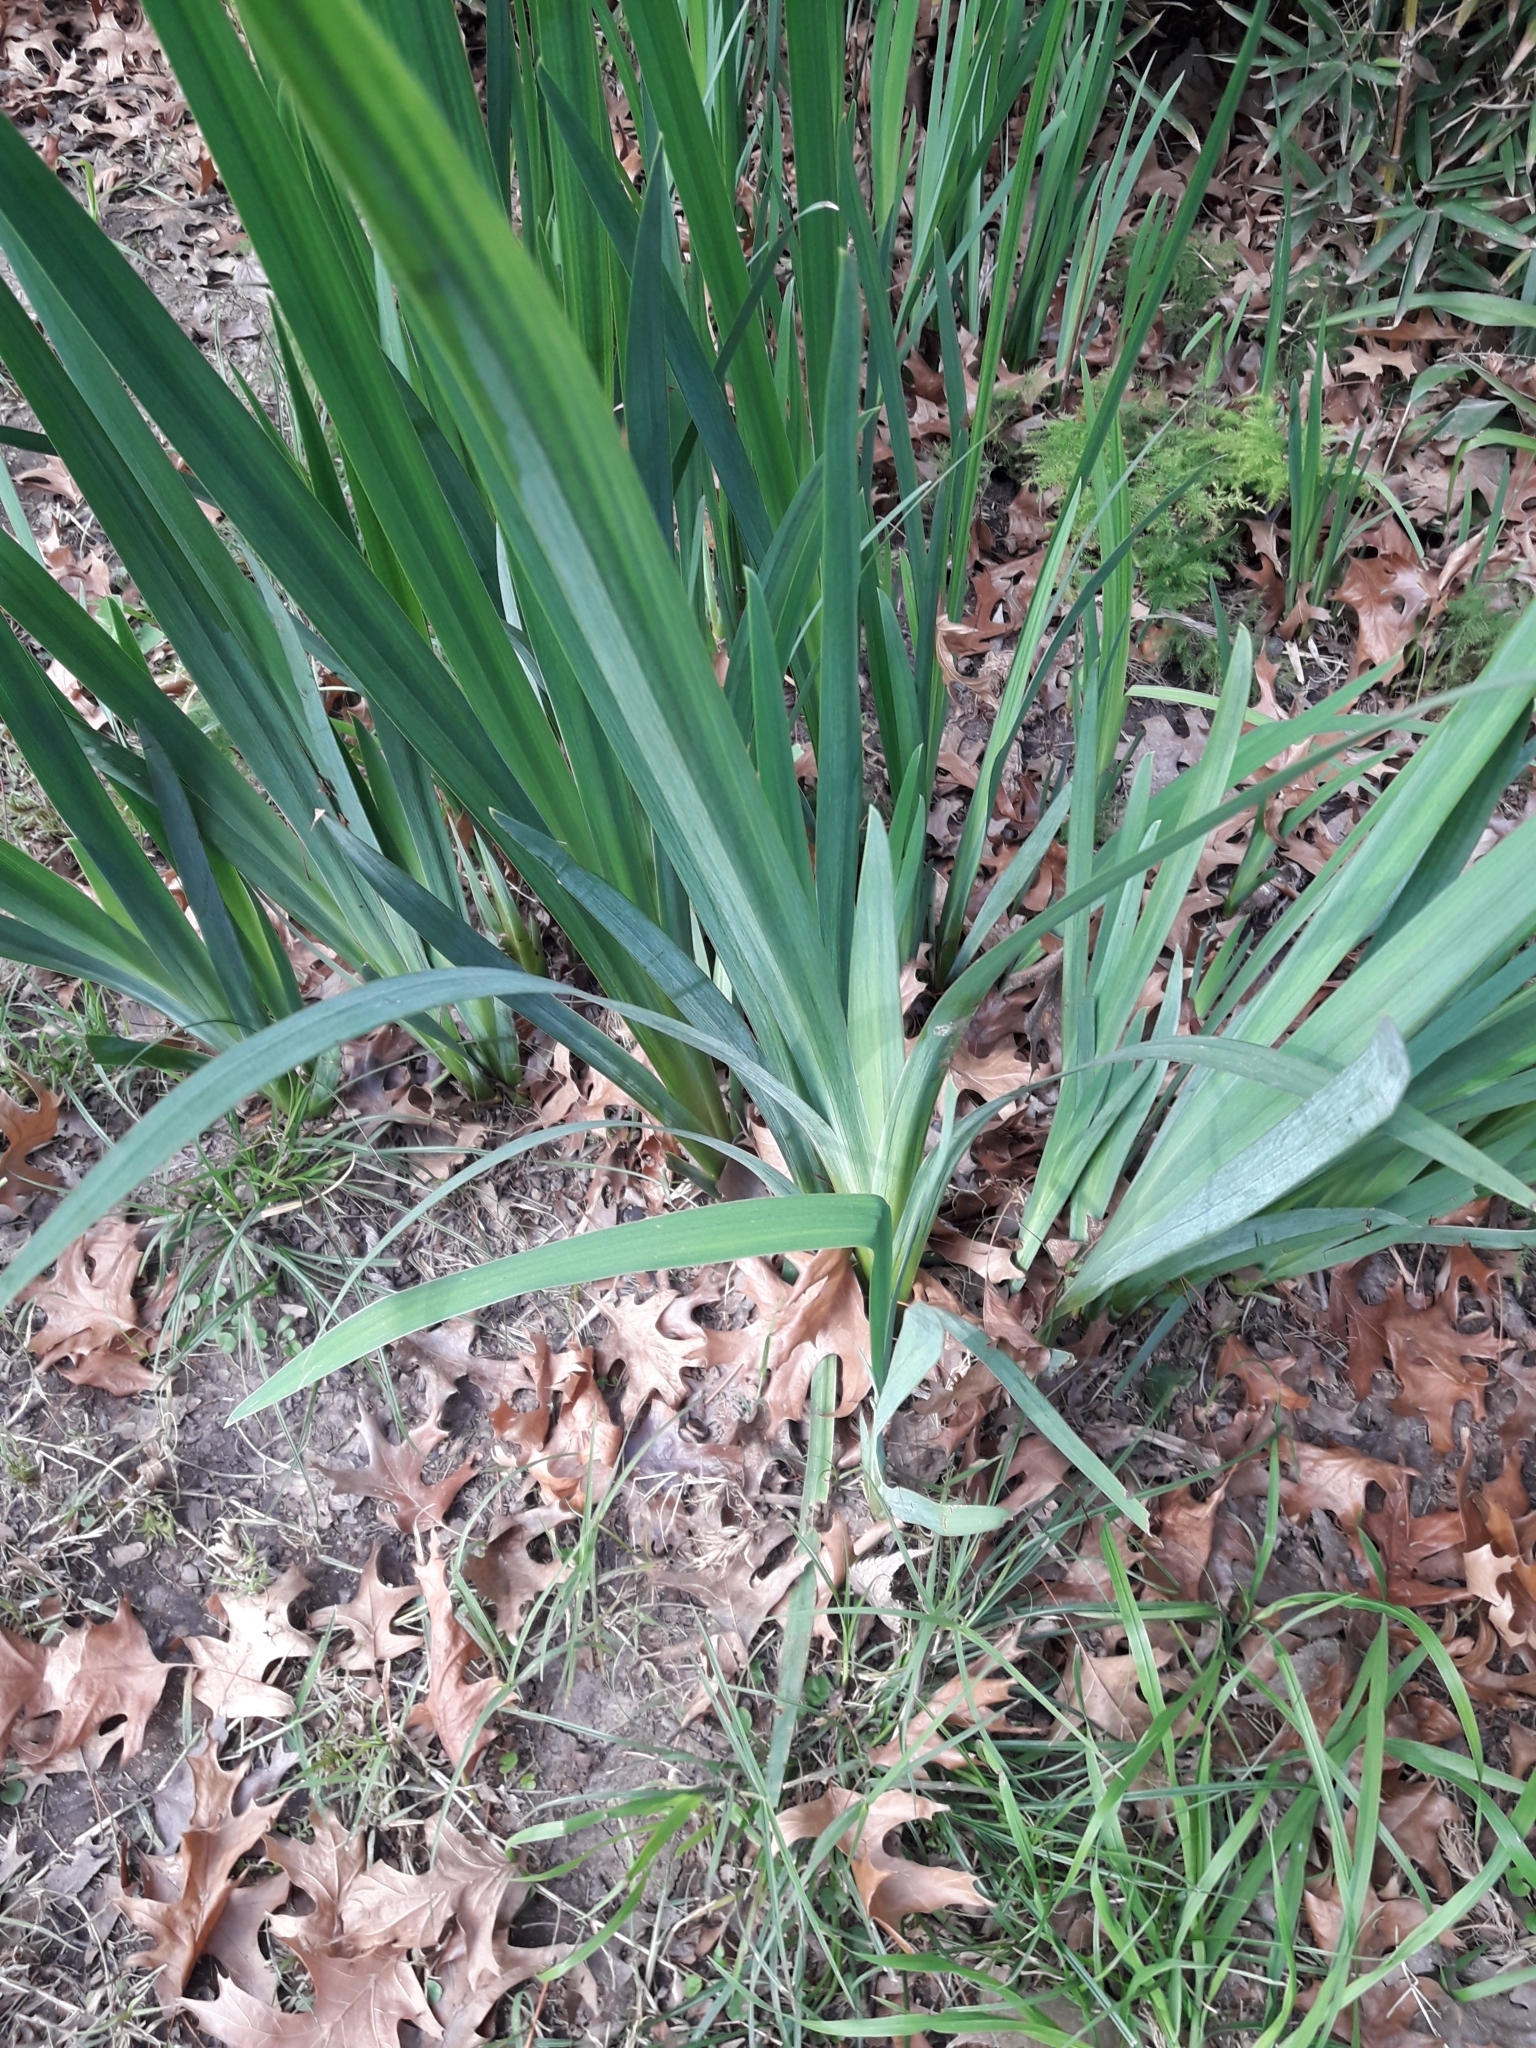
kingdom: Plantae
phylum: Tracheophyta
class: Liliopsida
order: Asparagales
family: Iridaceae
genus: Iris
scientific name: Iris pseudacorus
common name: Yellow flag
